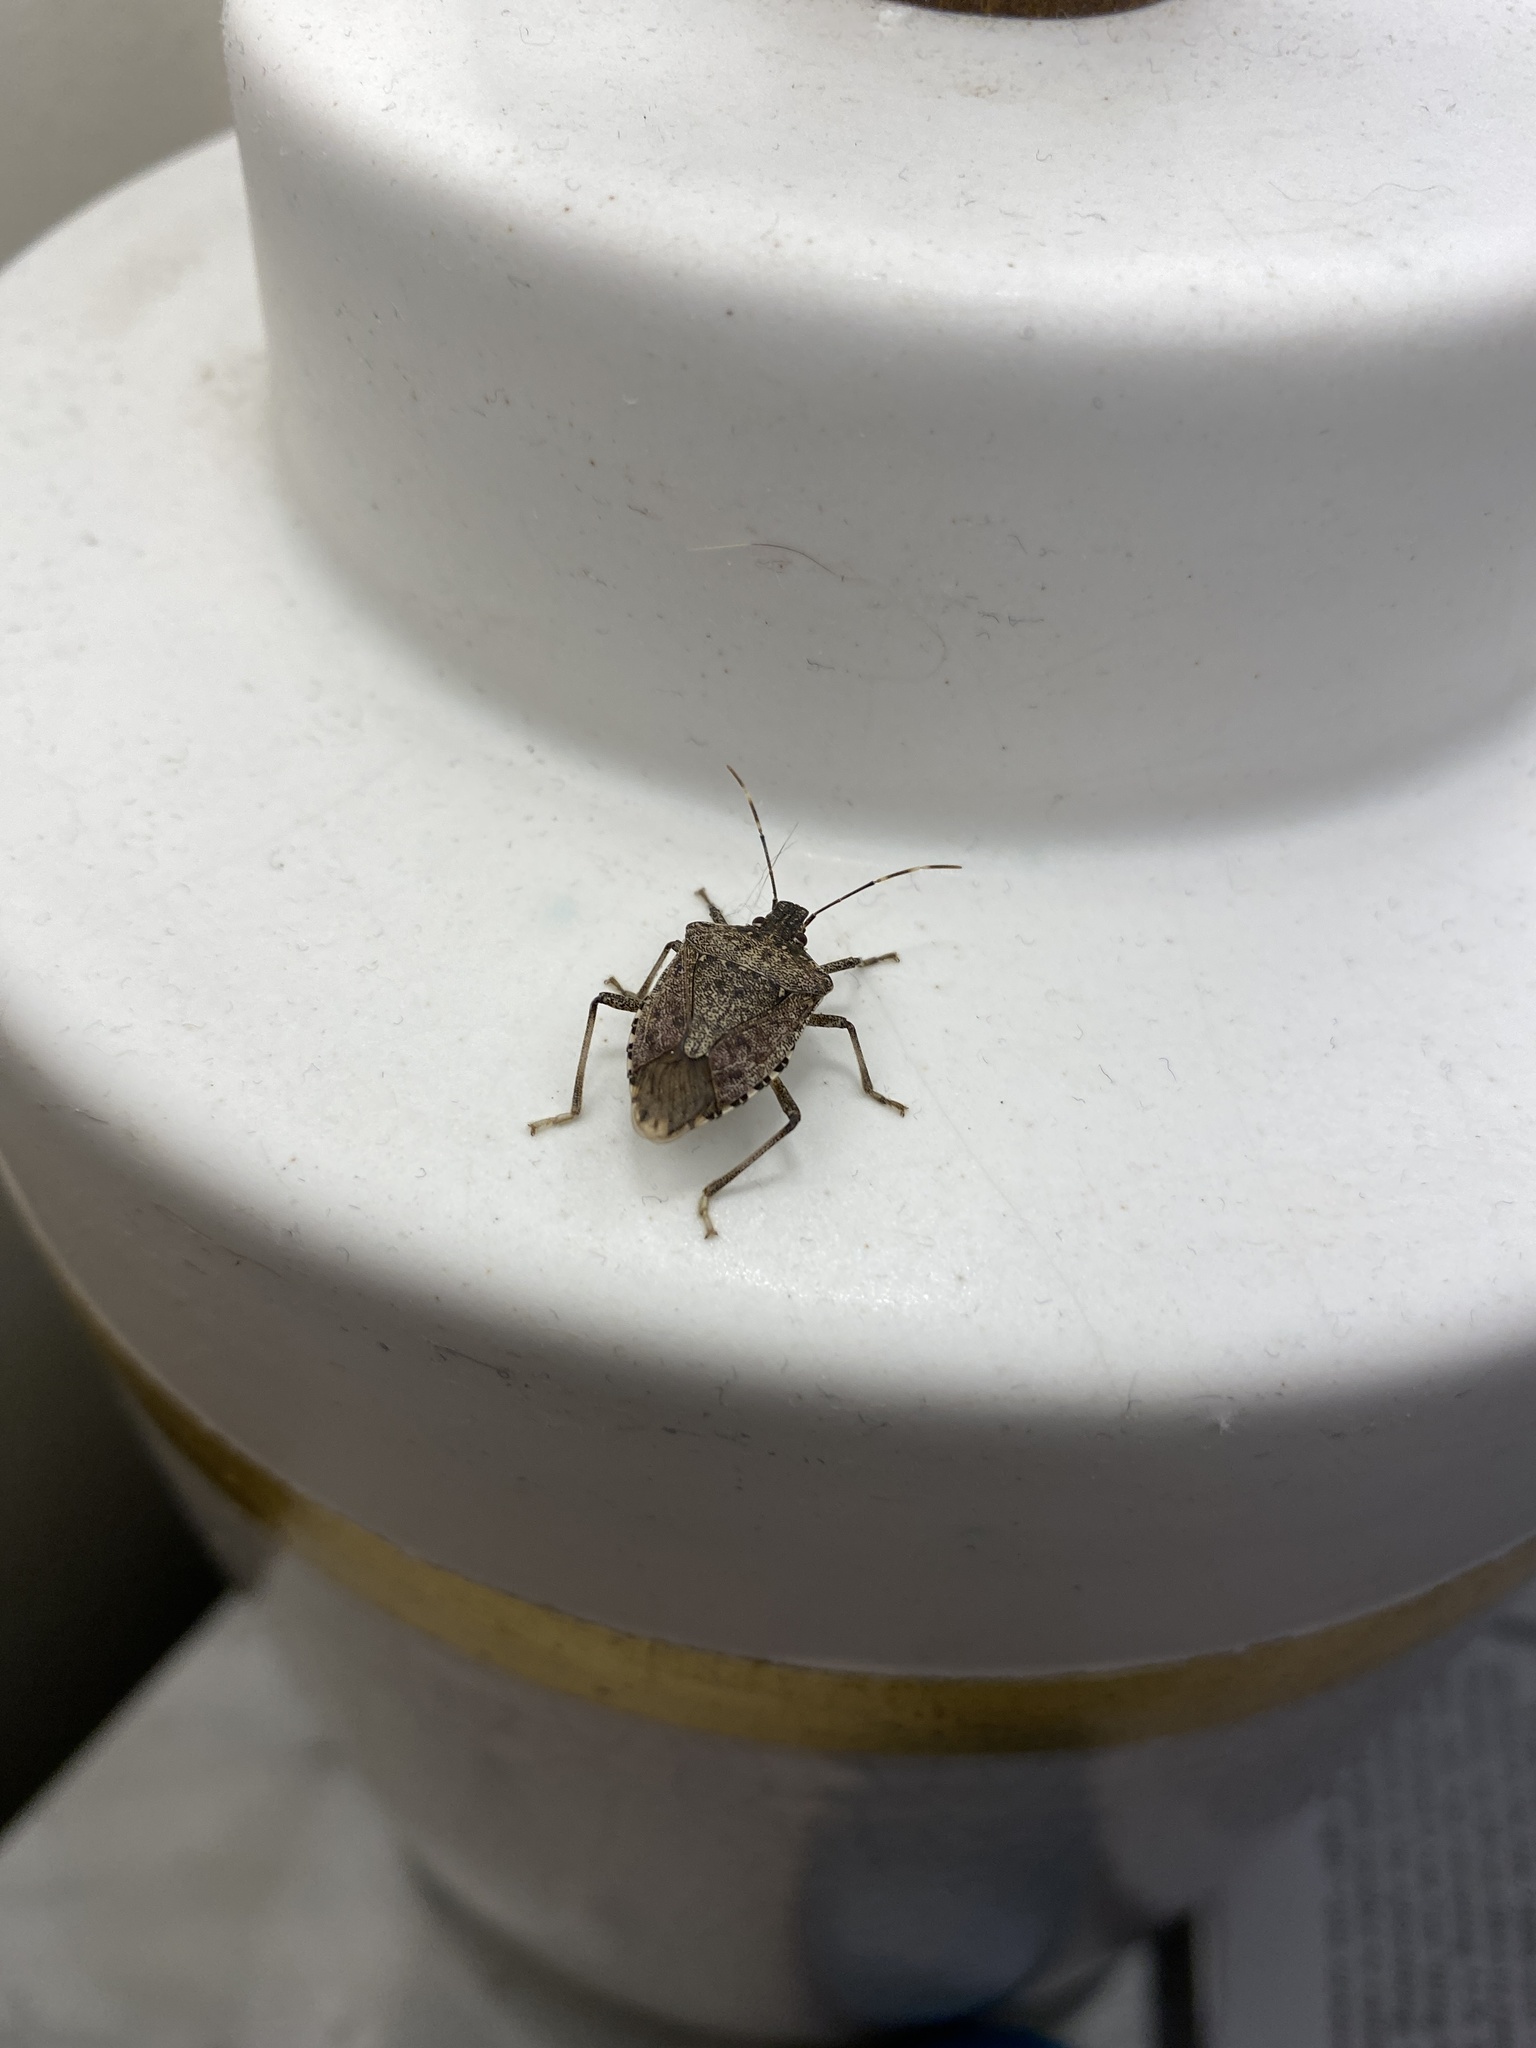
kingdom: Animalia
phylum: Arthropoda
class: Insecta
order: Hemiptera
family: Pentatomidae
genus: Halyomorpha
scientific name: Halyomorpha halys
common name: Brown marmorated stink bug
